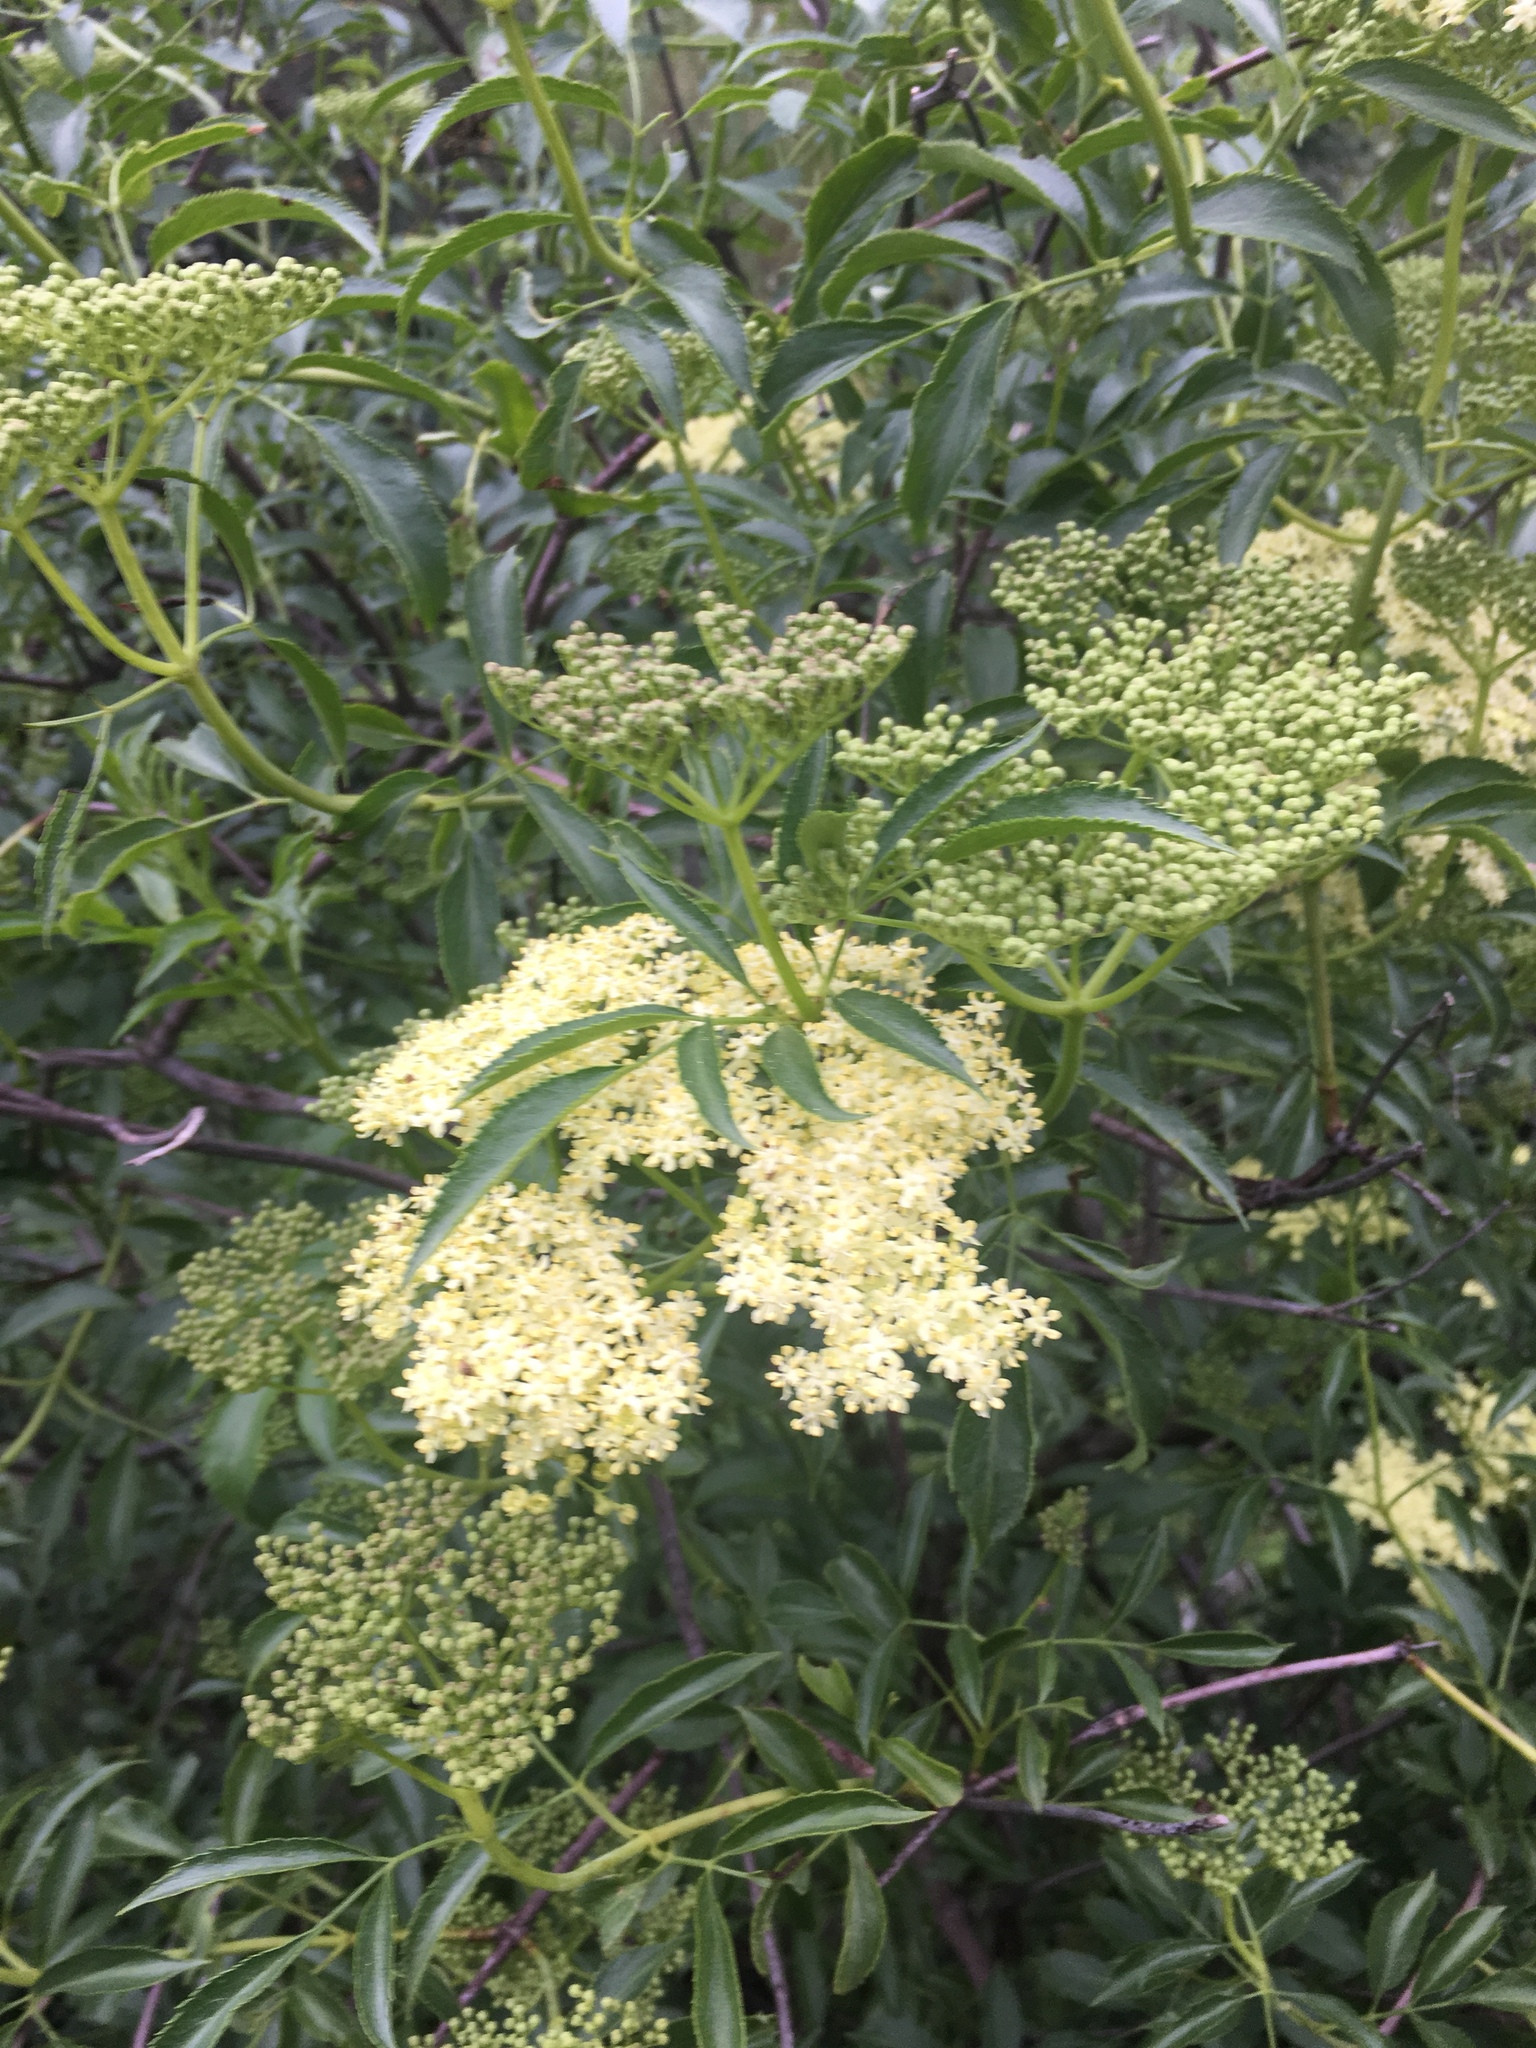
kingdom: Plantae
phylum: Tracheophyta
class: Magnoliopsida
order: Dipsacales
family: Viburnaceae
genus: Sambucus
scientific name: Sambucus cerulea
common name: Blue elder
